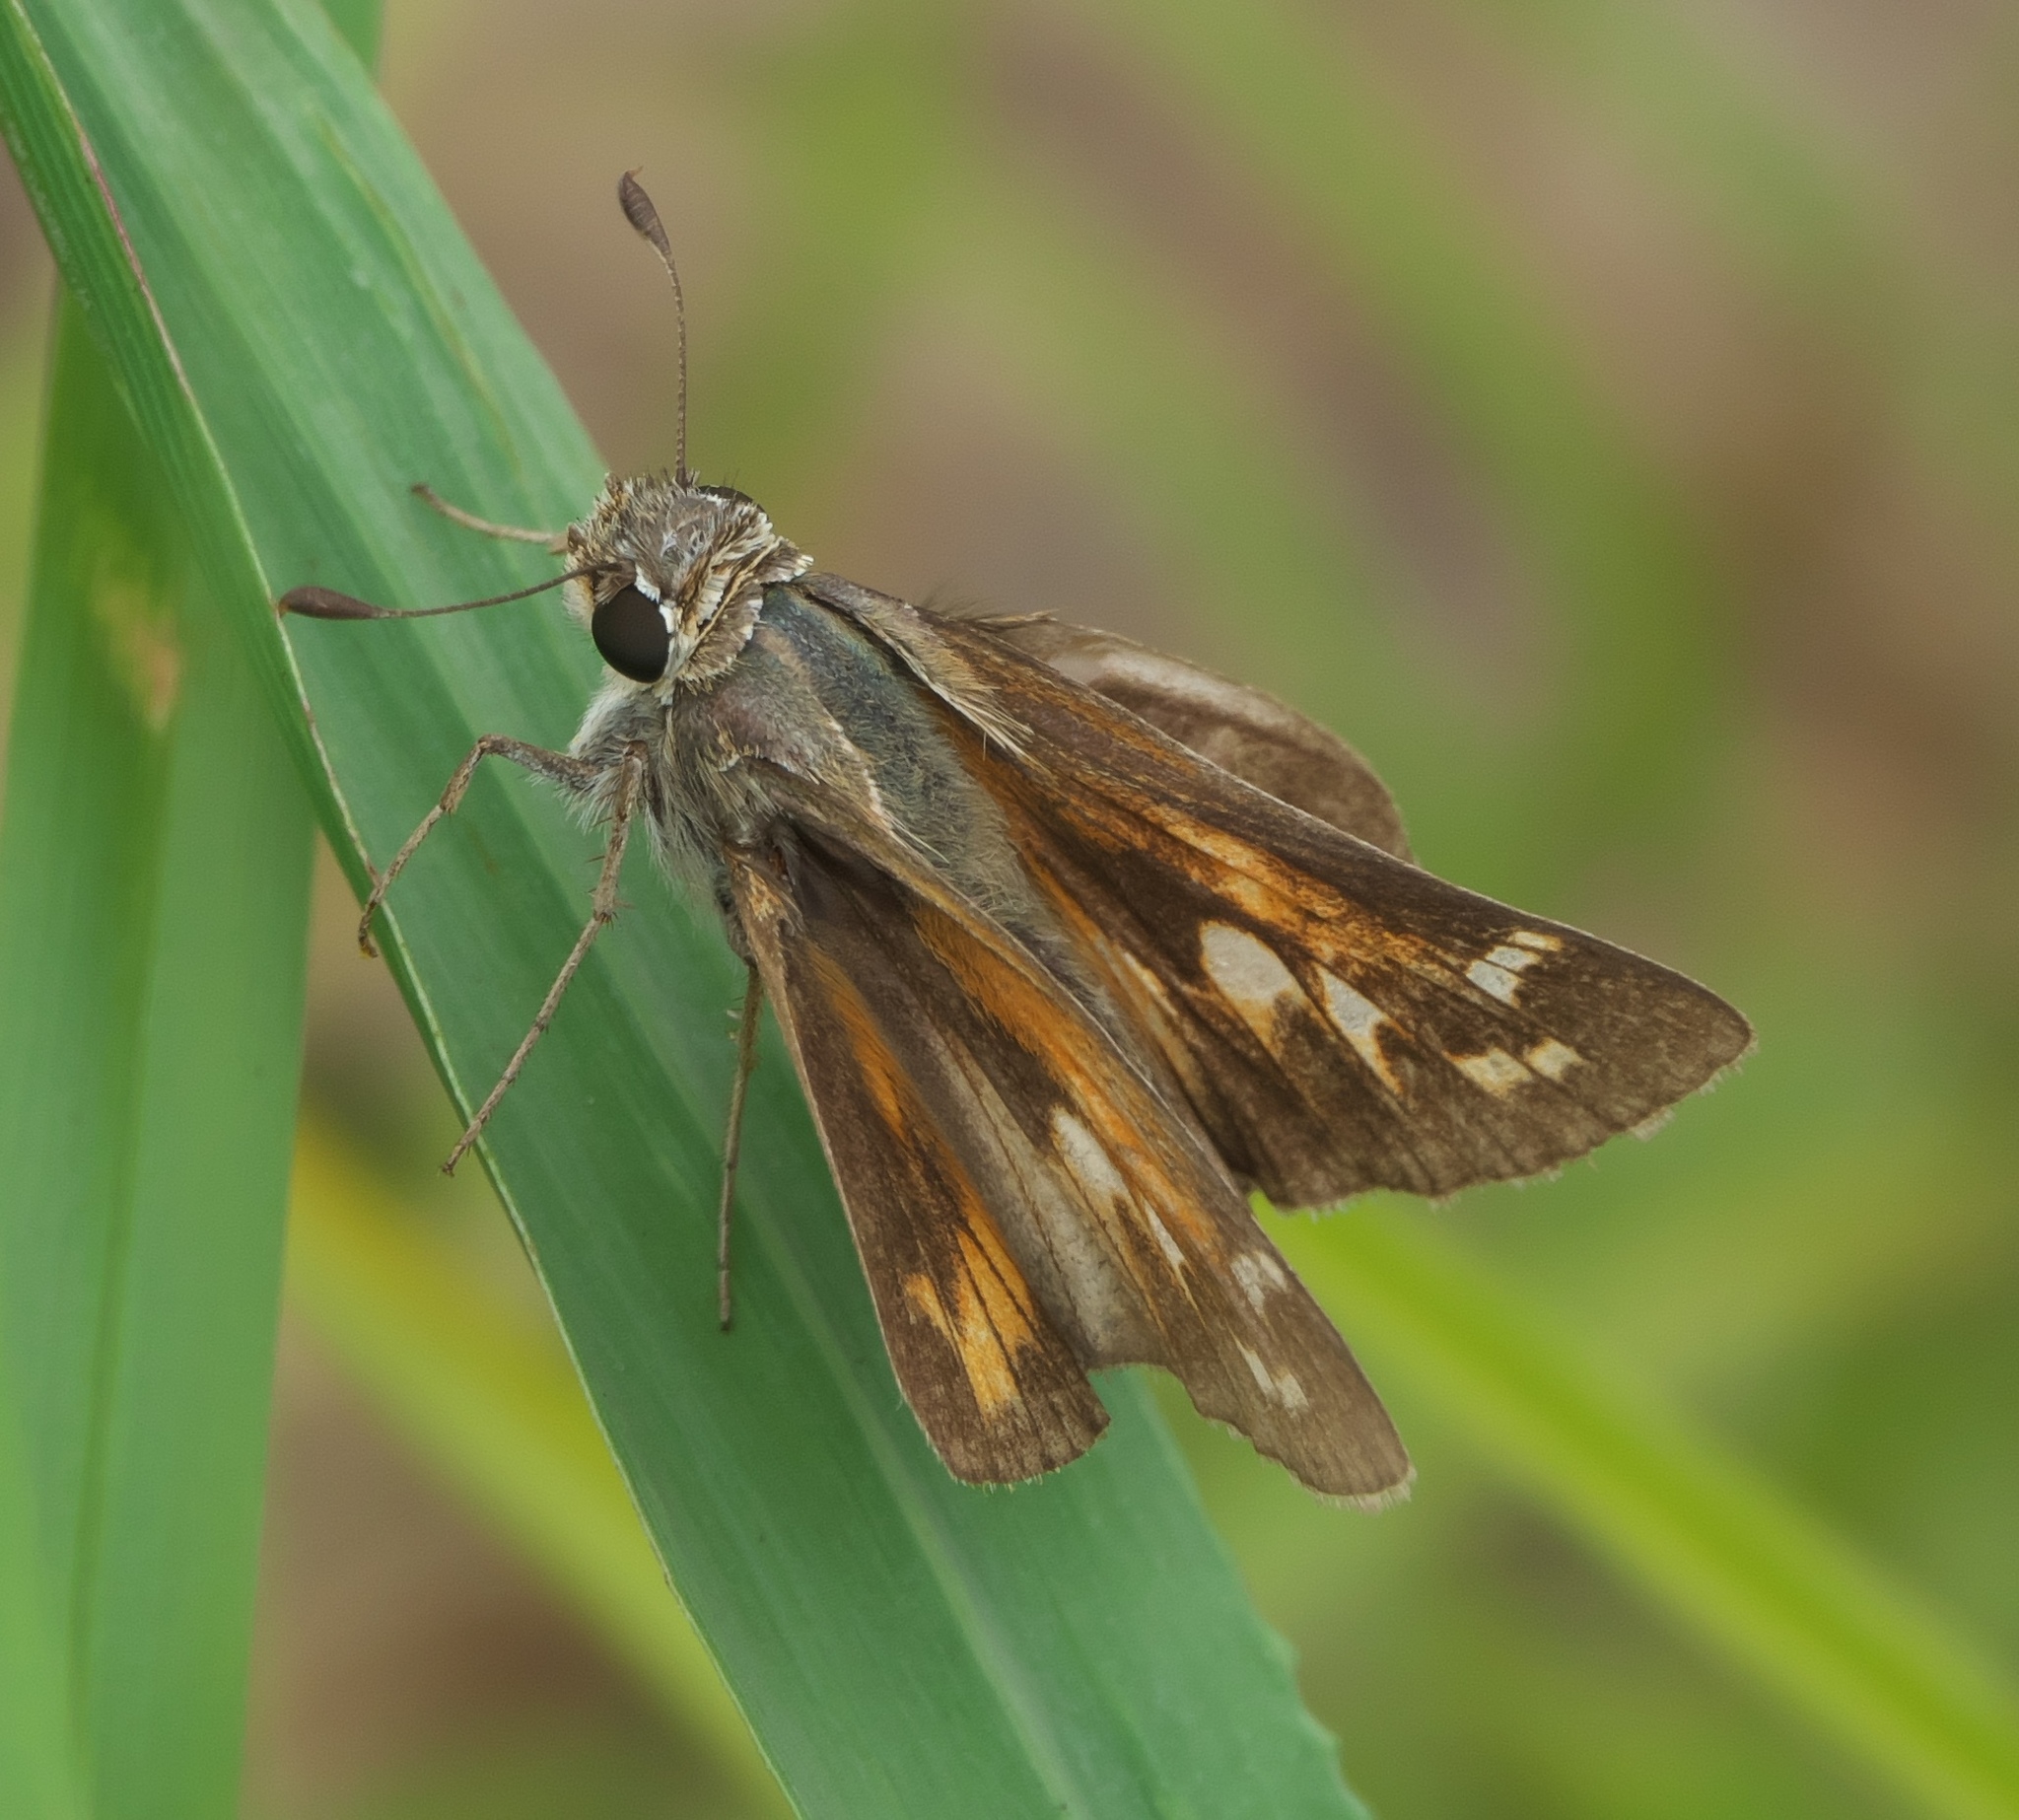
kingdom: Animalia
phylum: Arthropoda
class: Insecta
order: Lepidoptera
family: Hesperiidae
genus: Atalopedes
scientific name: Atalopedes
